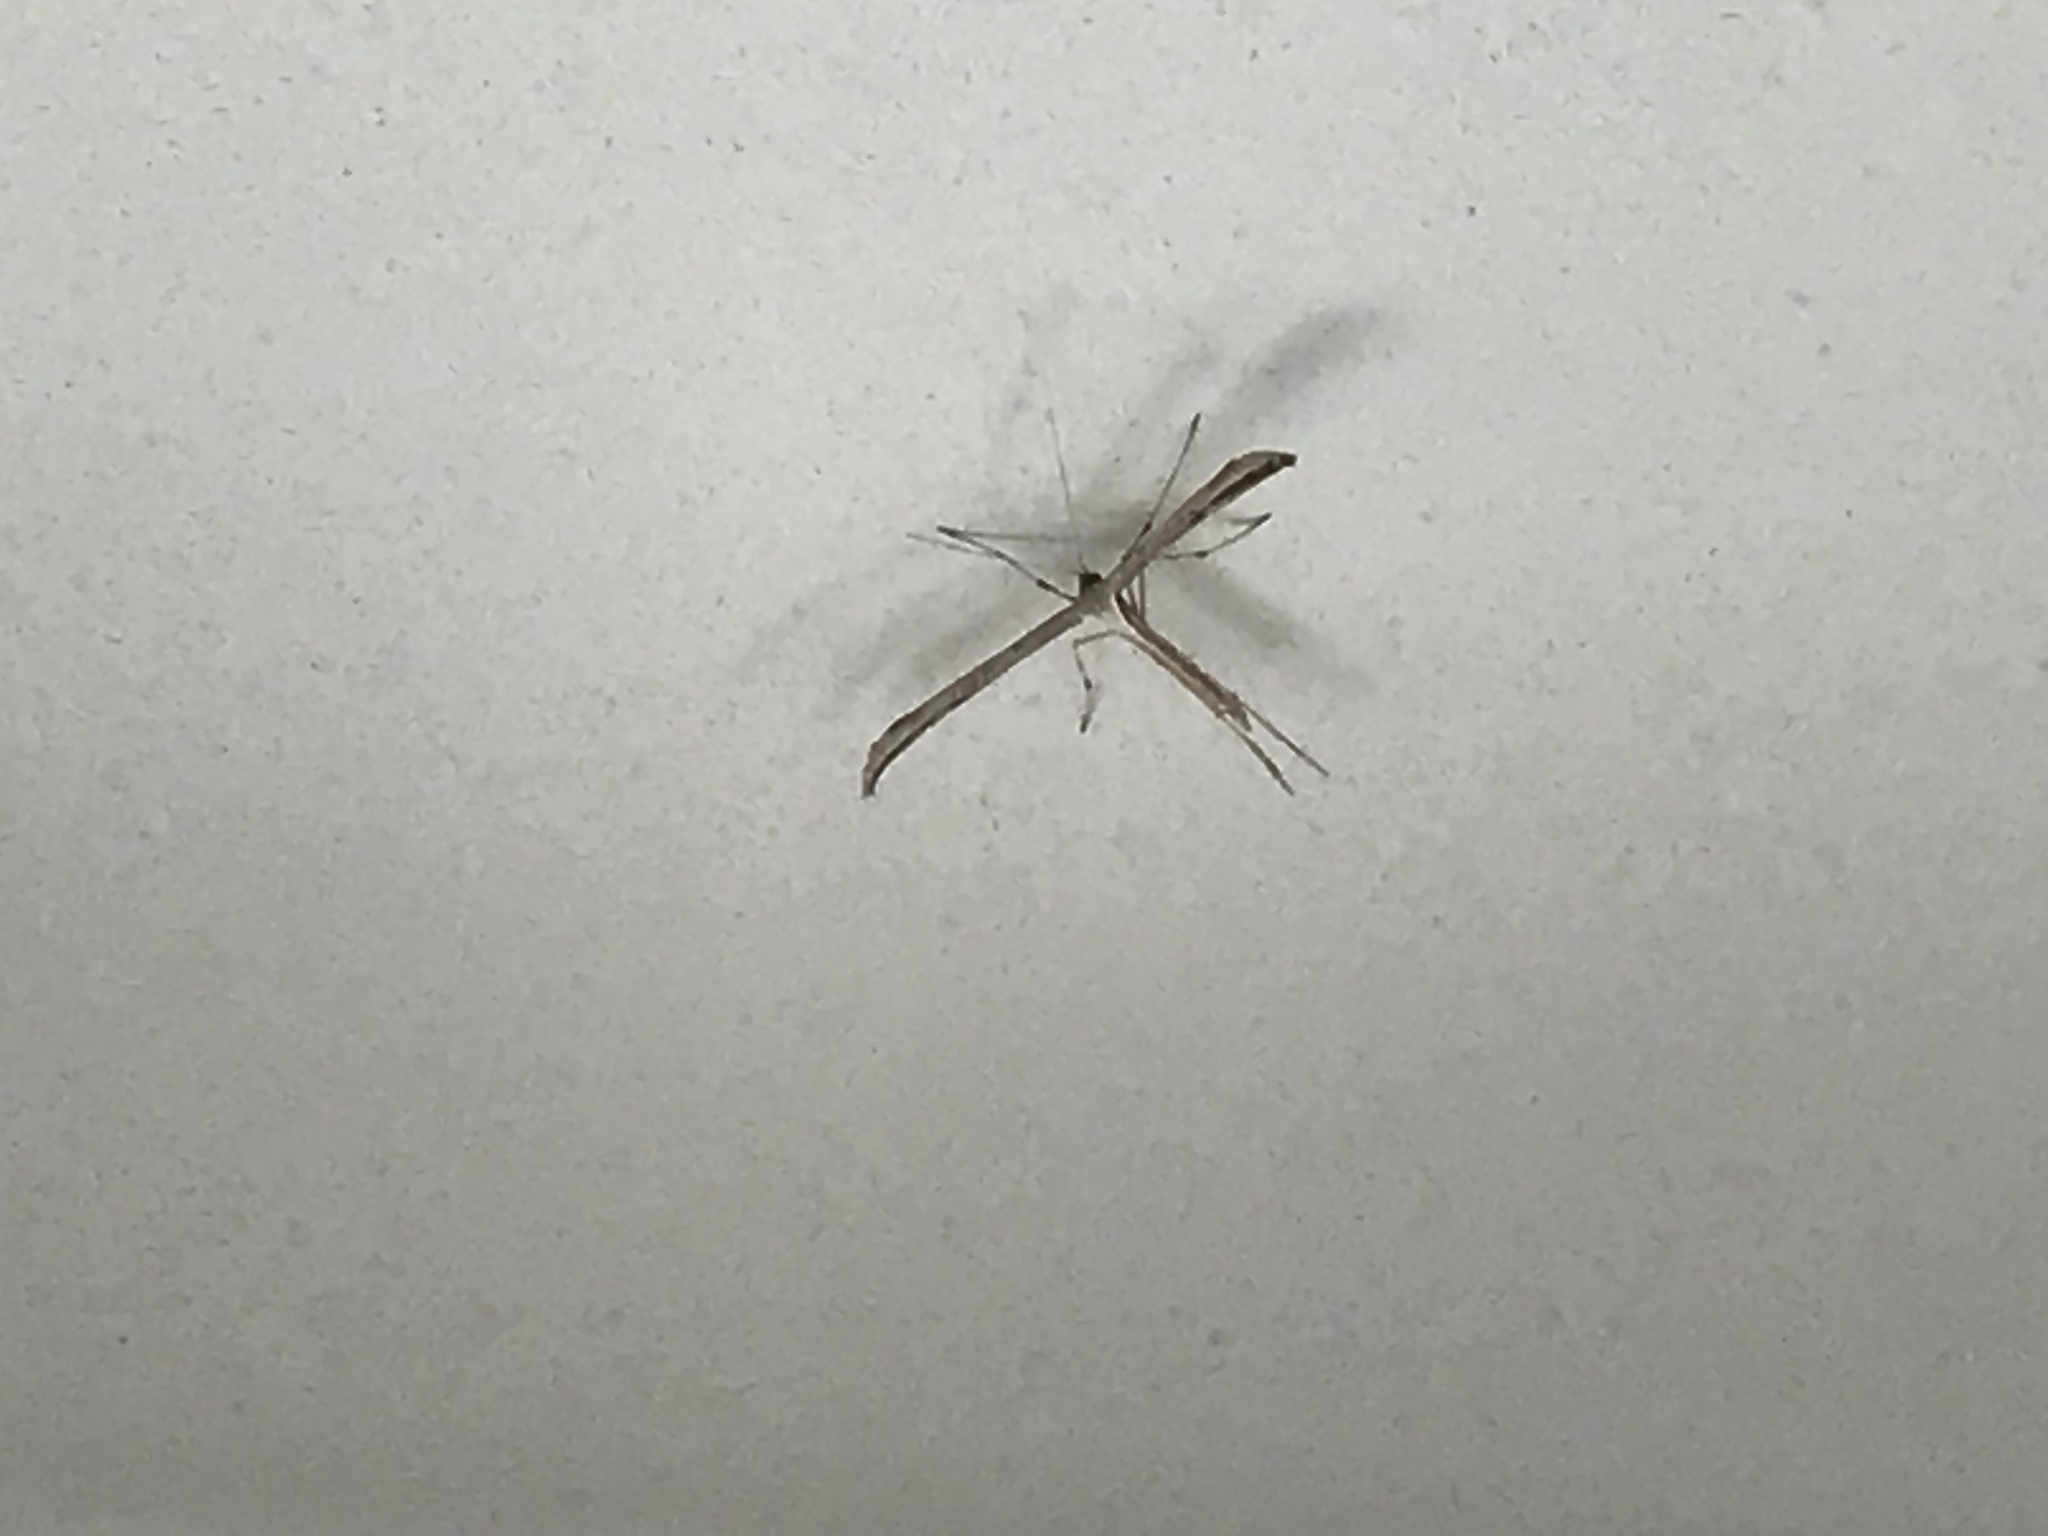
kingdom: Animalia
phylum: Arthropoda
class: Insecta
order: Lepidoptera
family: Pterophoridae
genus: Emmelina
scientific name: Emmelina monodactyla
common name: Common plume
